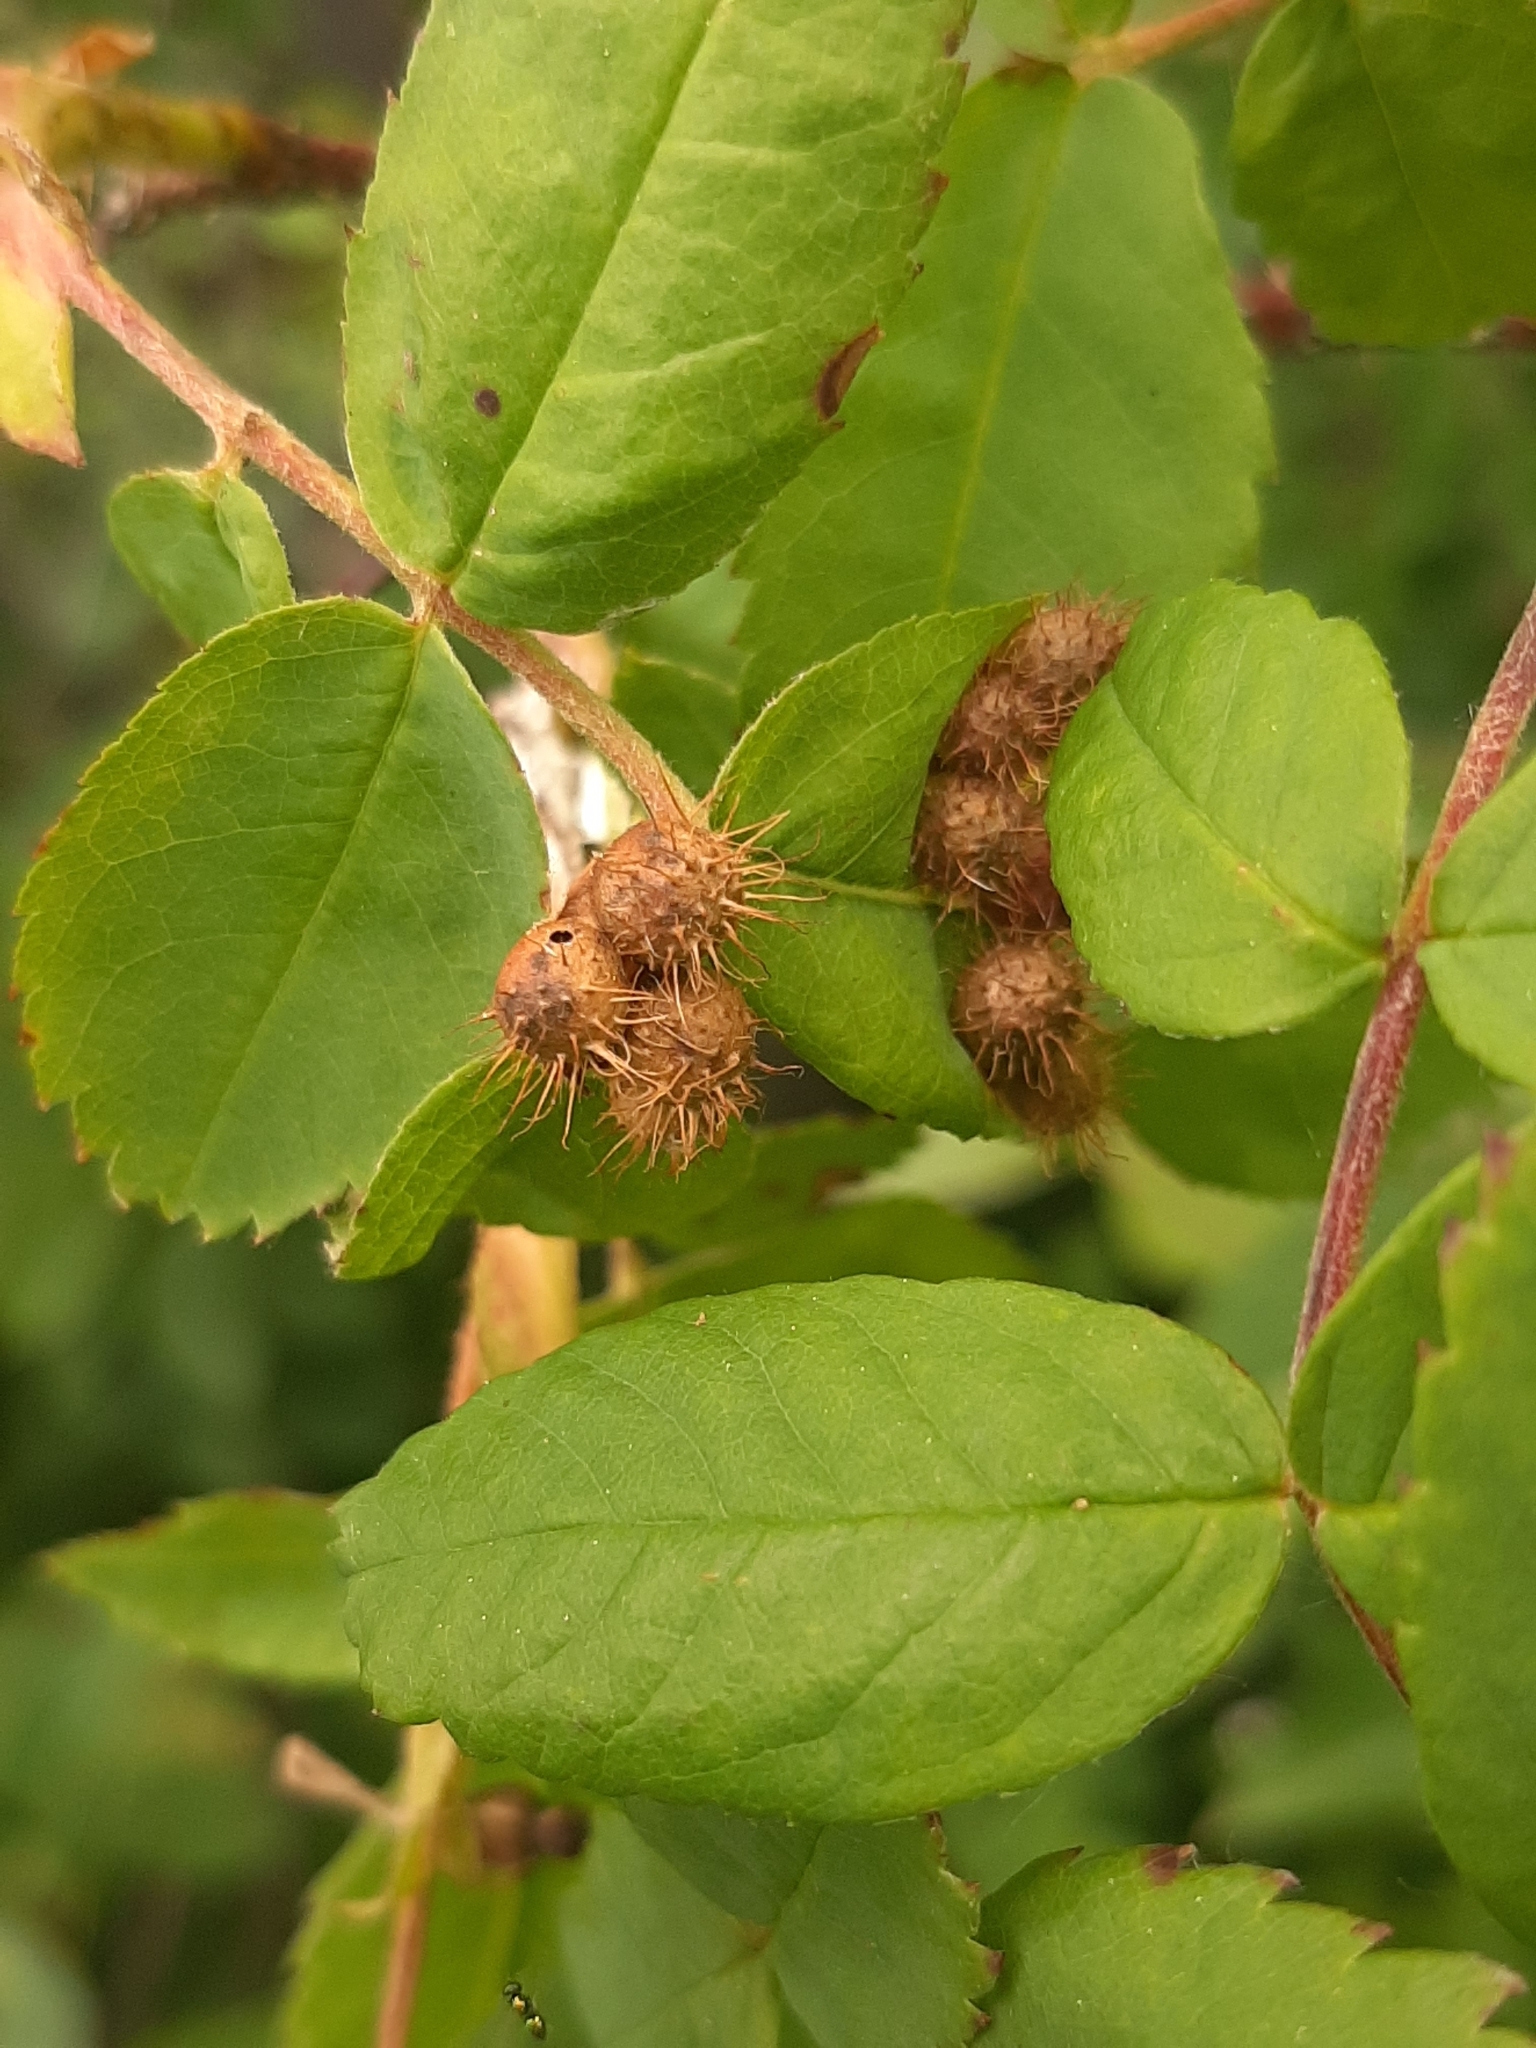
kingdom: Animalia
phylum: Arthropoda
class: Insecta
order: Hymenoptera
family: Cynipidae
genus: Diplolepis
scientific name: Diplolepis polita
